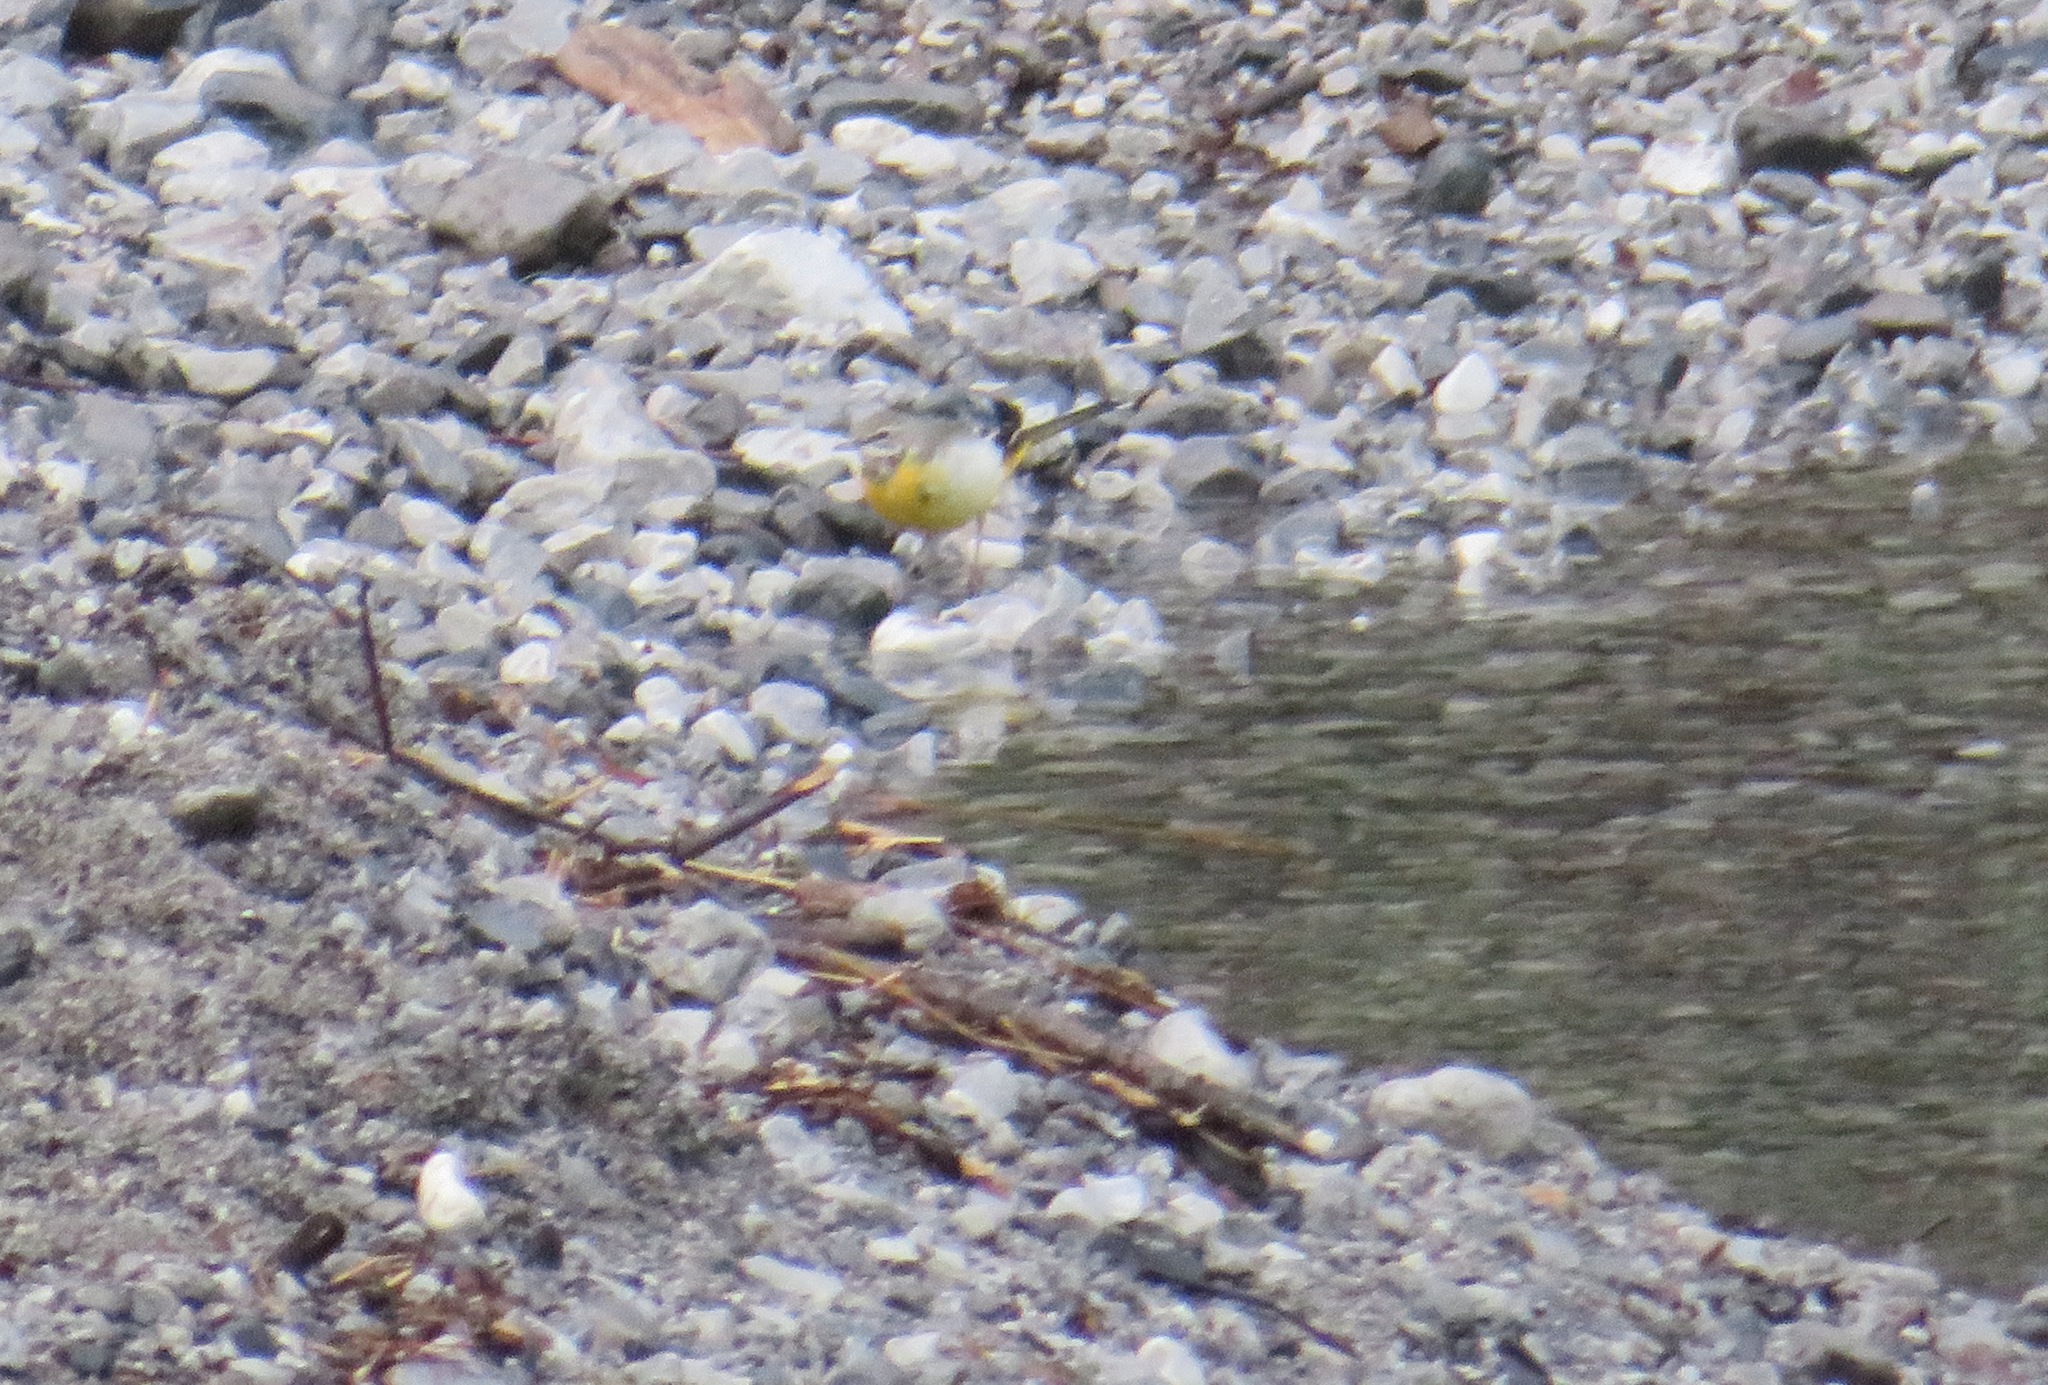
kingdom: Animalia
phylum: Chordata
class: Aves
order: Passeriformes
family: Motacillidae
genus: Motacilla
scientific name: Motacilla cinerea
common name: Grey wagtail
